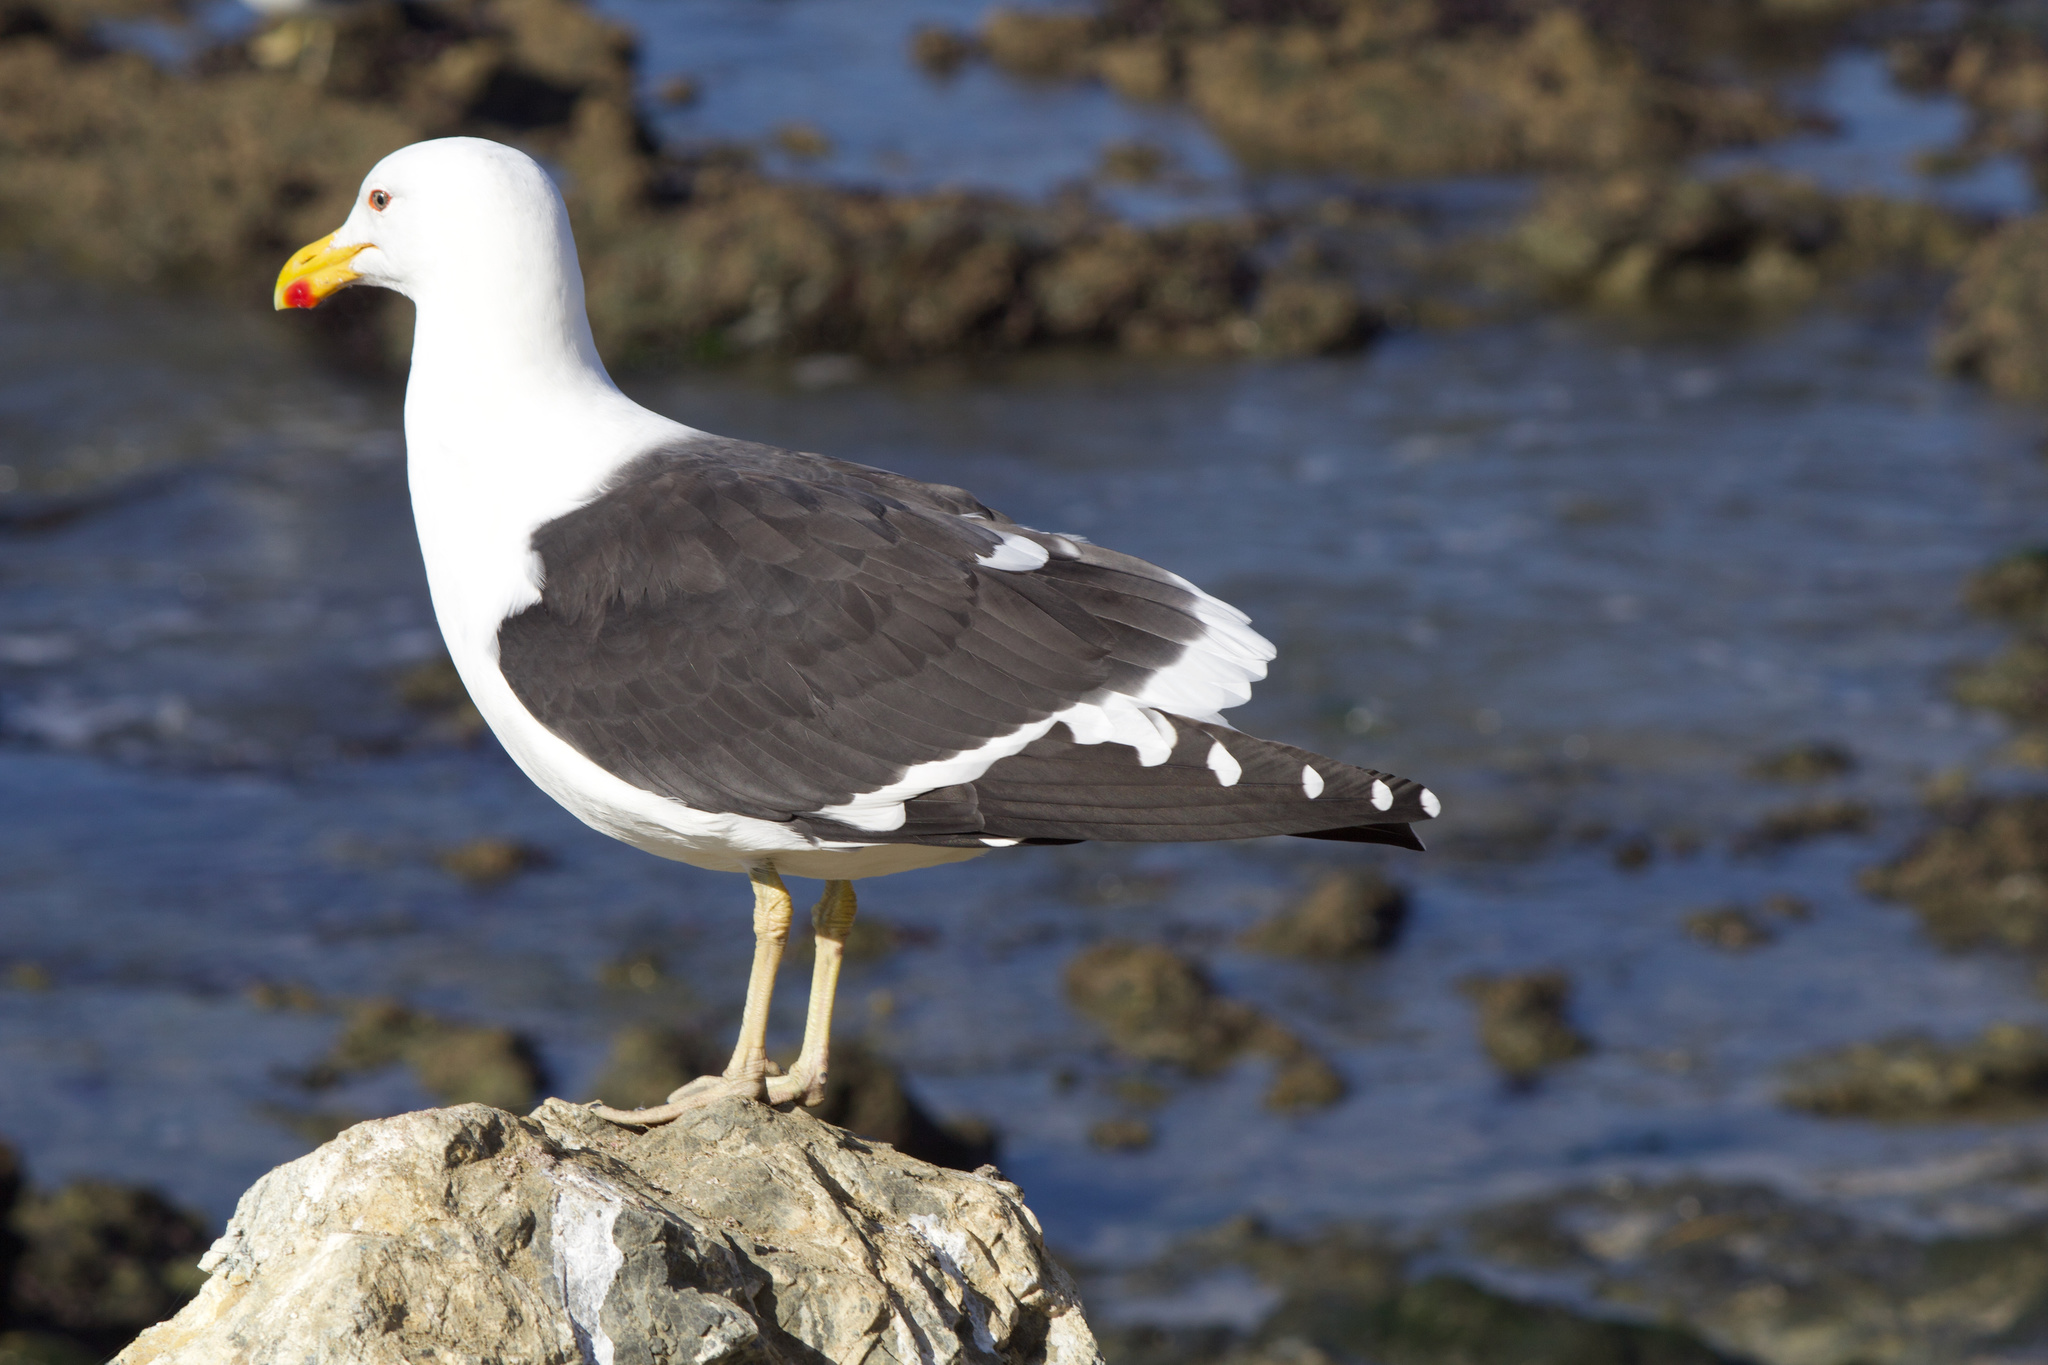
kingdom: Animalia
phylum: Chordata
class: Aves
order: Charadriiformes
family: Laridae
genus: Larus
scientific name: Larus dominicanus
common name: Kelp gull
